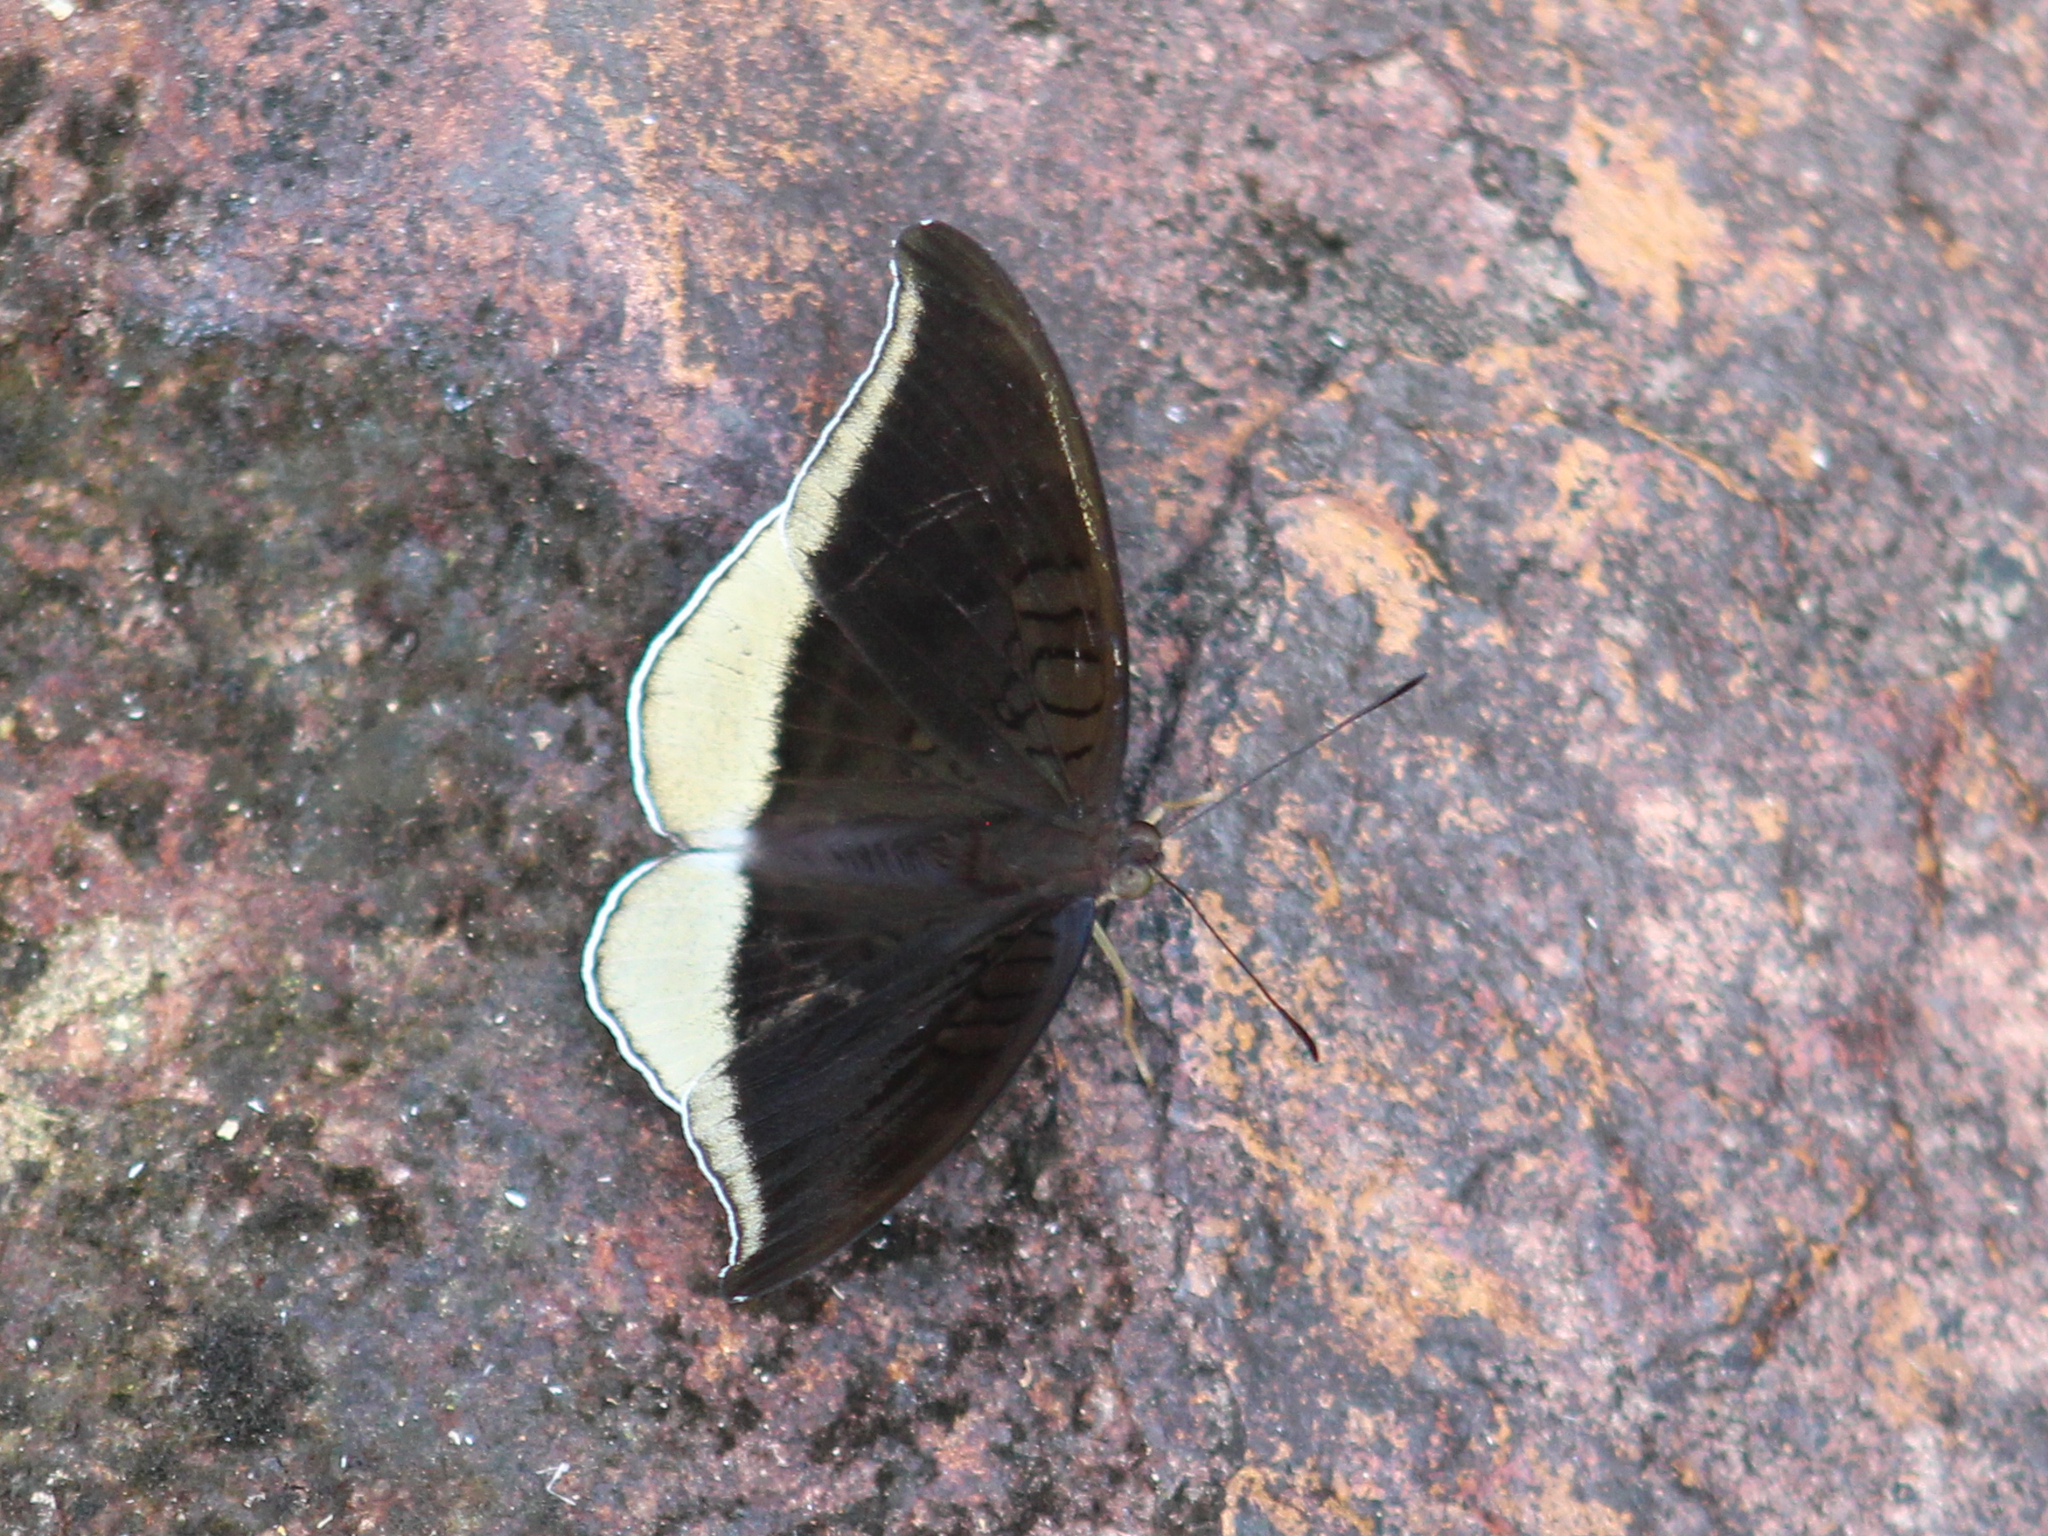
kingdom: Animalia
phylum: Arthropoda
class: Insecta
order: Lepidoptera
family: Nymphalidae
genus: Tanaecia
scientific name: Tanaecia lepidea
